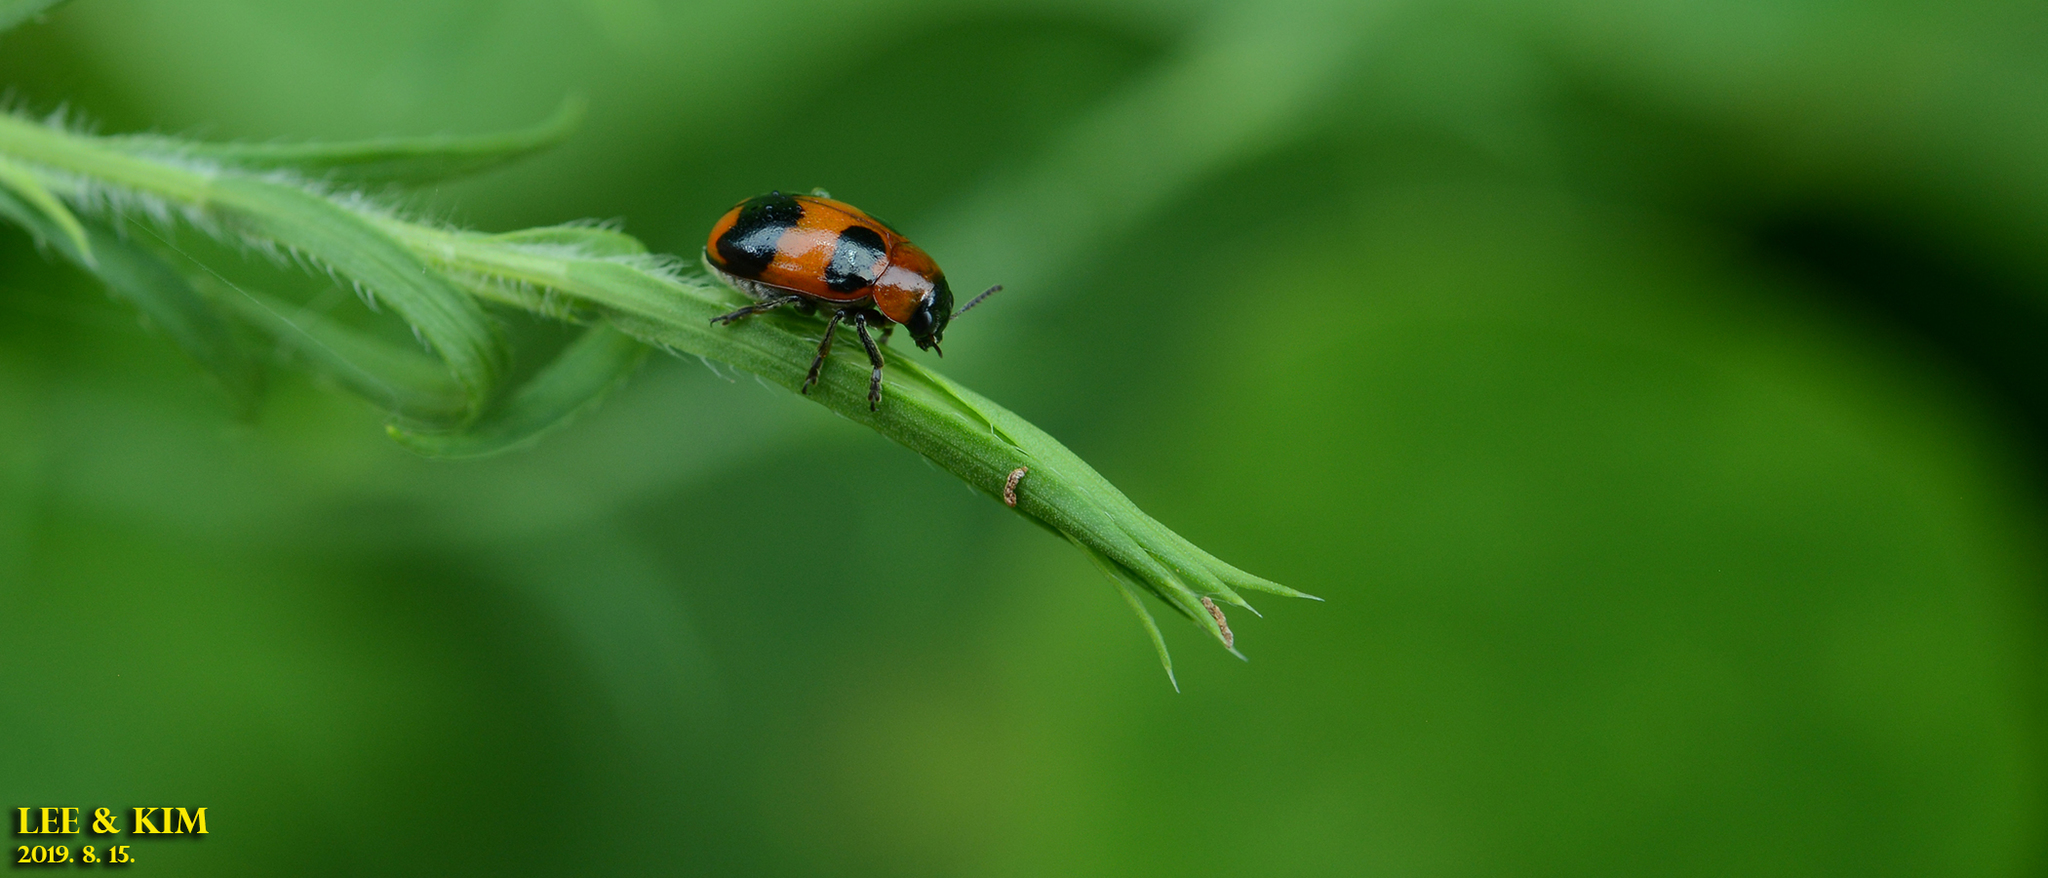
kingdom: Animalia
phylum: Arthropoda
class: Insecta
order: Coleoptera
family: Chrysomelidae
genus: Physosmaragdina
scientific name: Physosmaragdina nigrifrons
